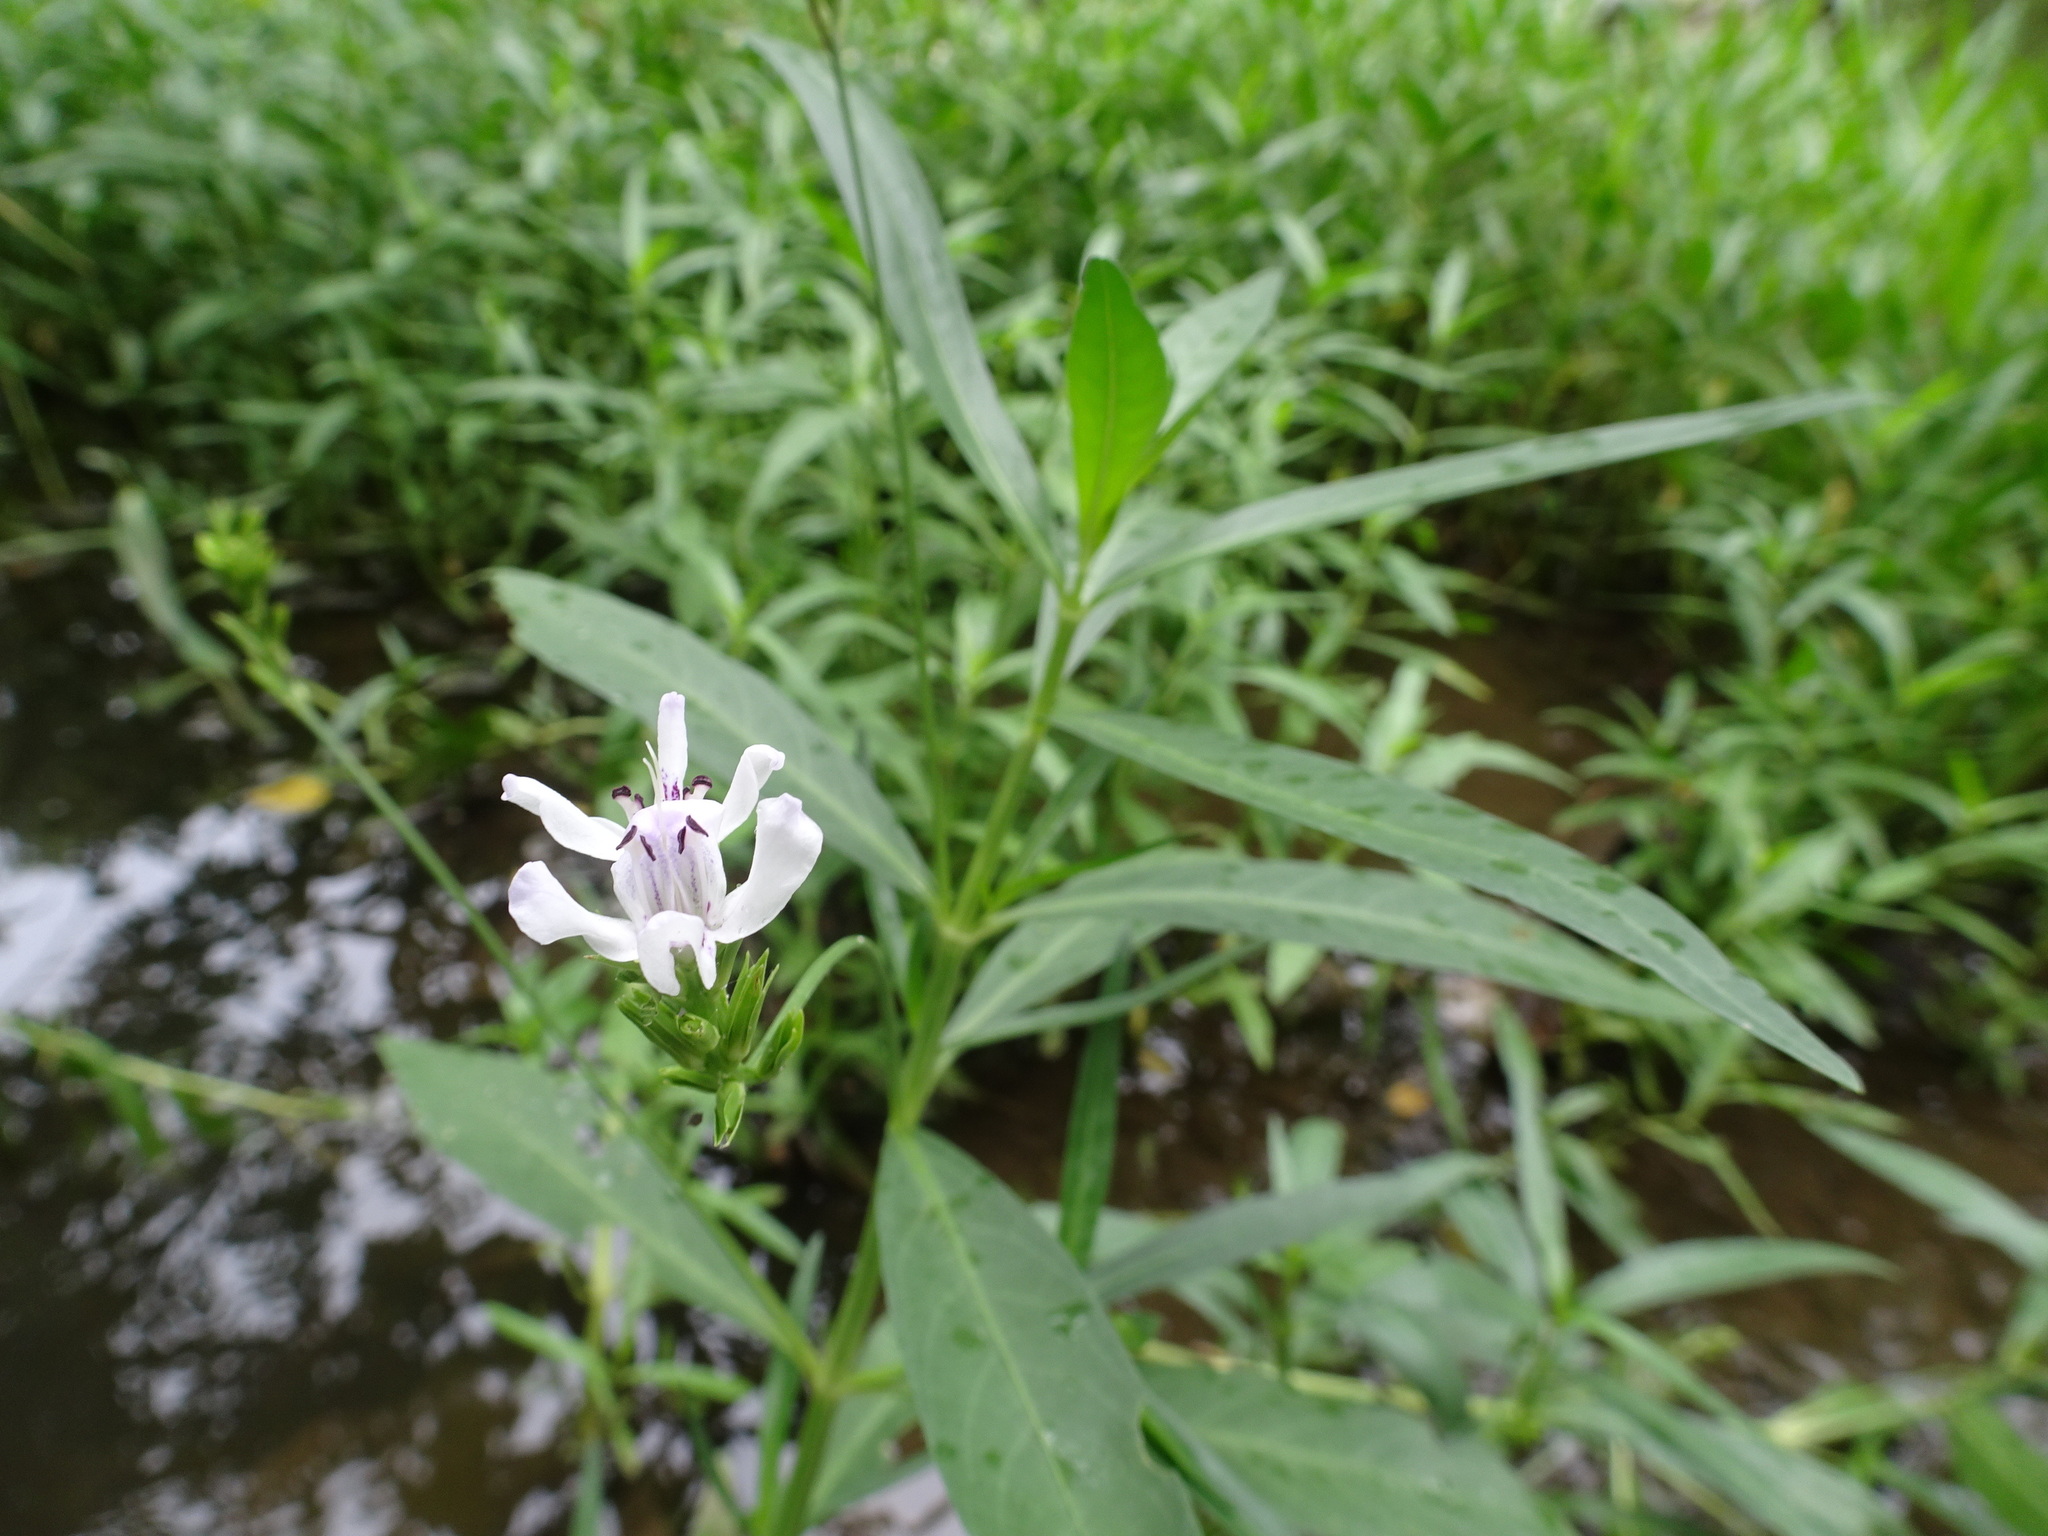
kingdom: Plantae
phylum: Tracheophyta
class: Magnoliopsida
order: Lamiales
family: Acanthaceae
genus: Dianthera
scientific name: Dianthera americana
